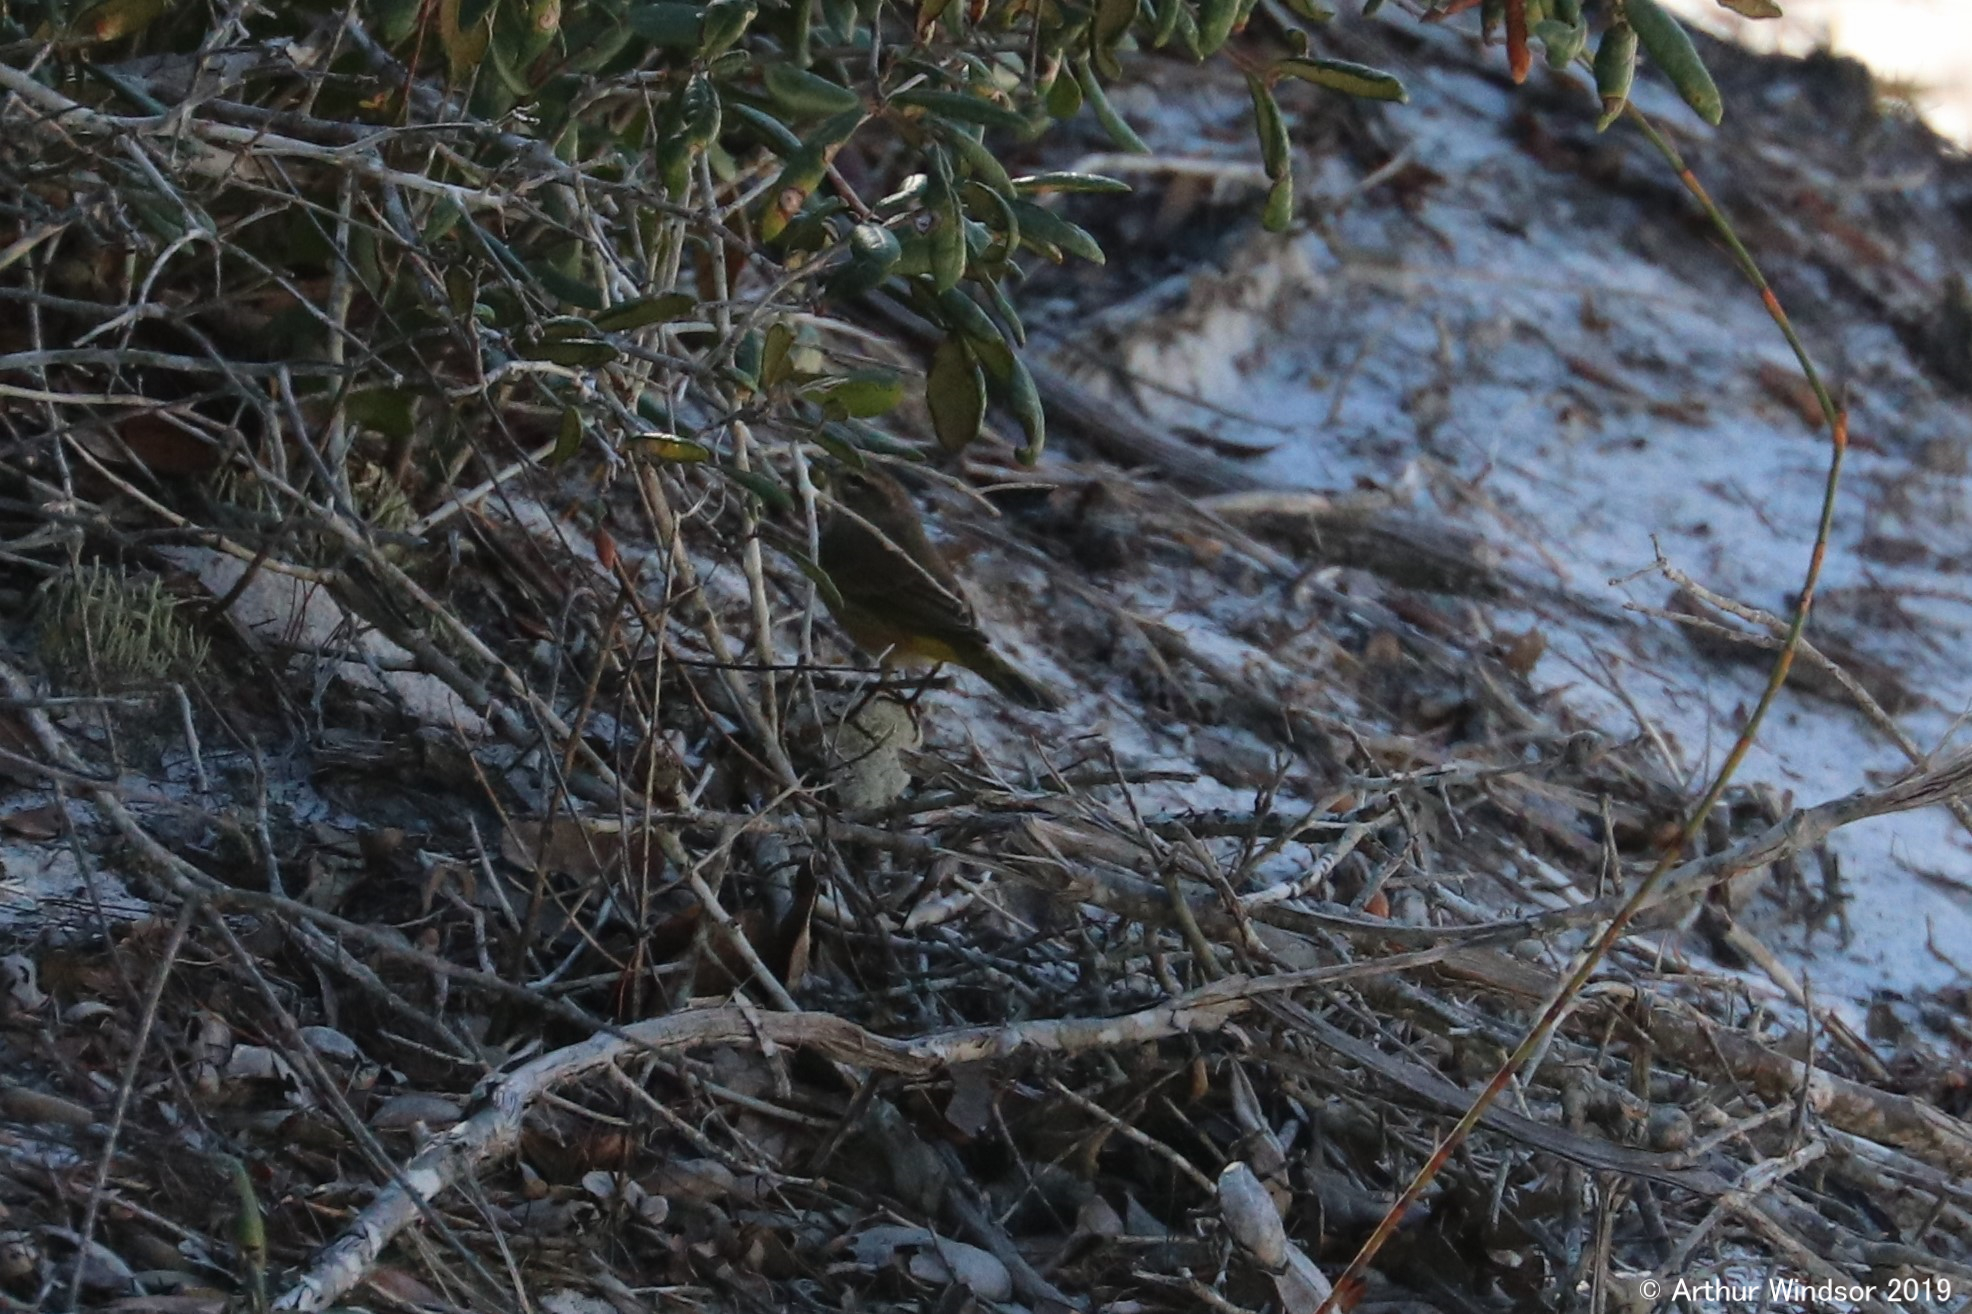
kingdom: Animalia
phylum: Chordata
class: Aves
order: Passeriformes
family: Parulidae
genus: Setophaga
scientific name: Setophaga palmarum
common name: Palm warbler
